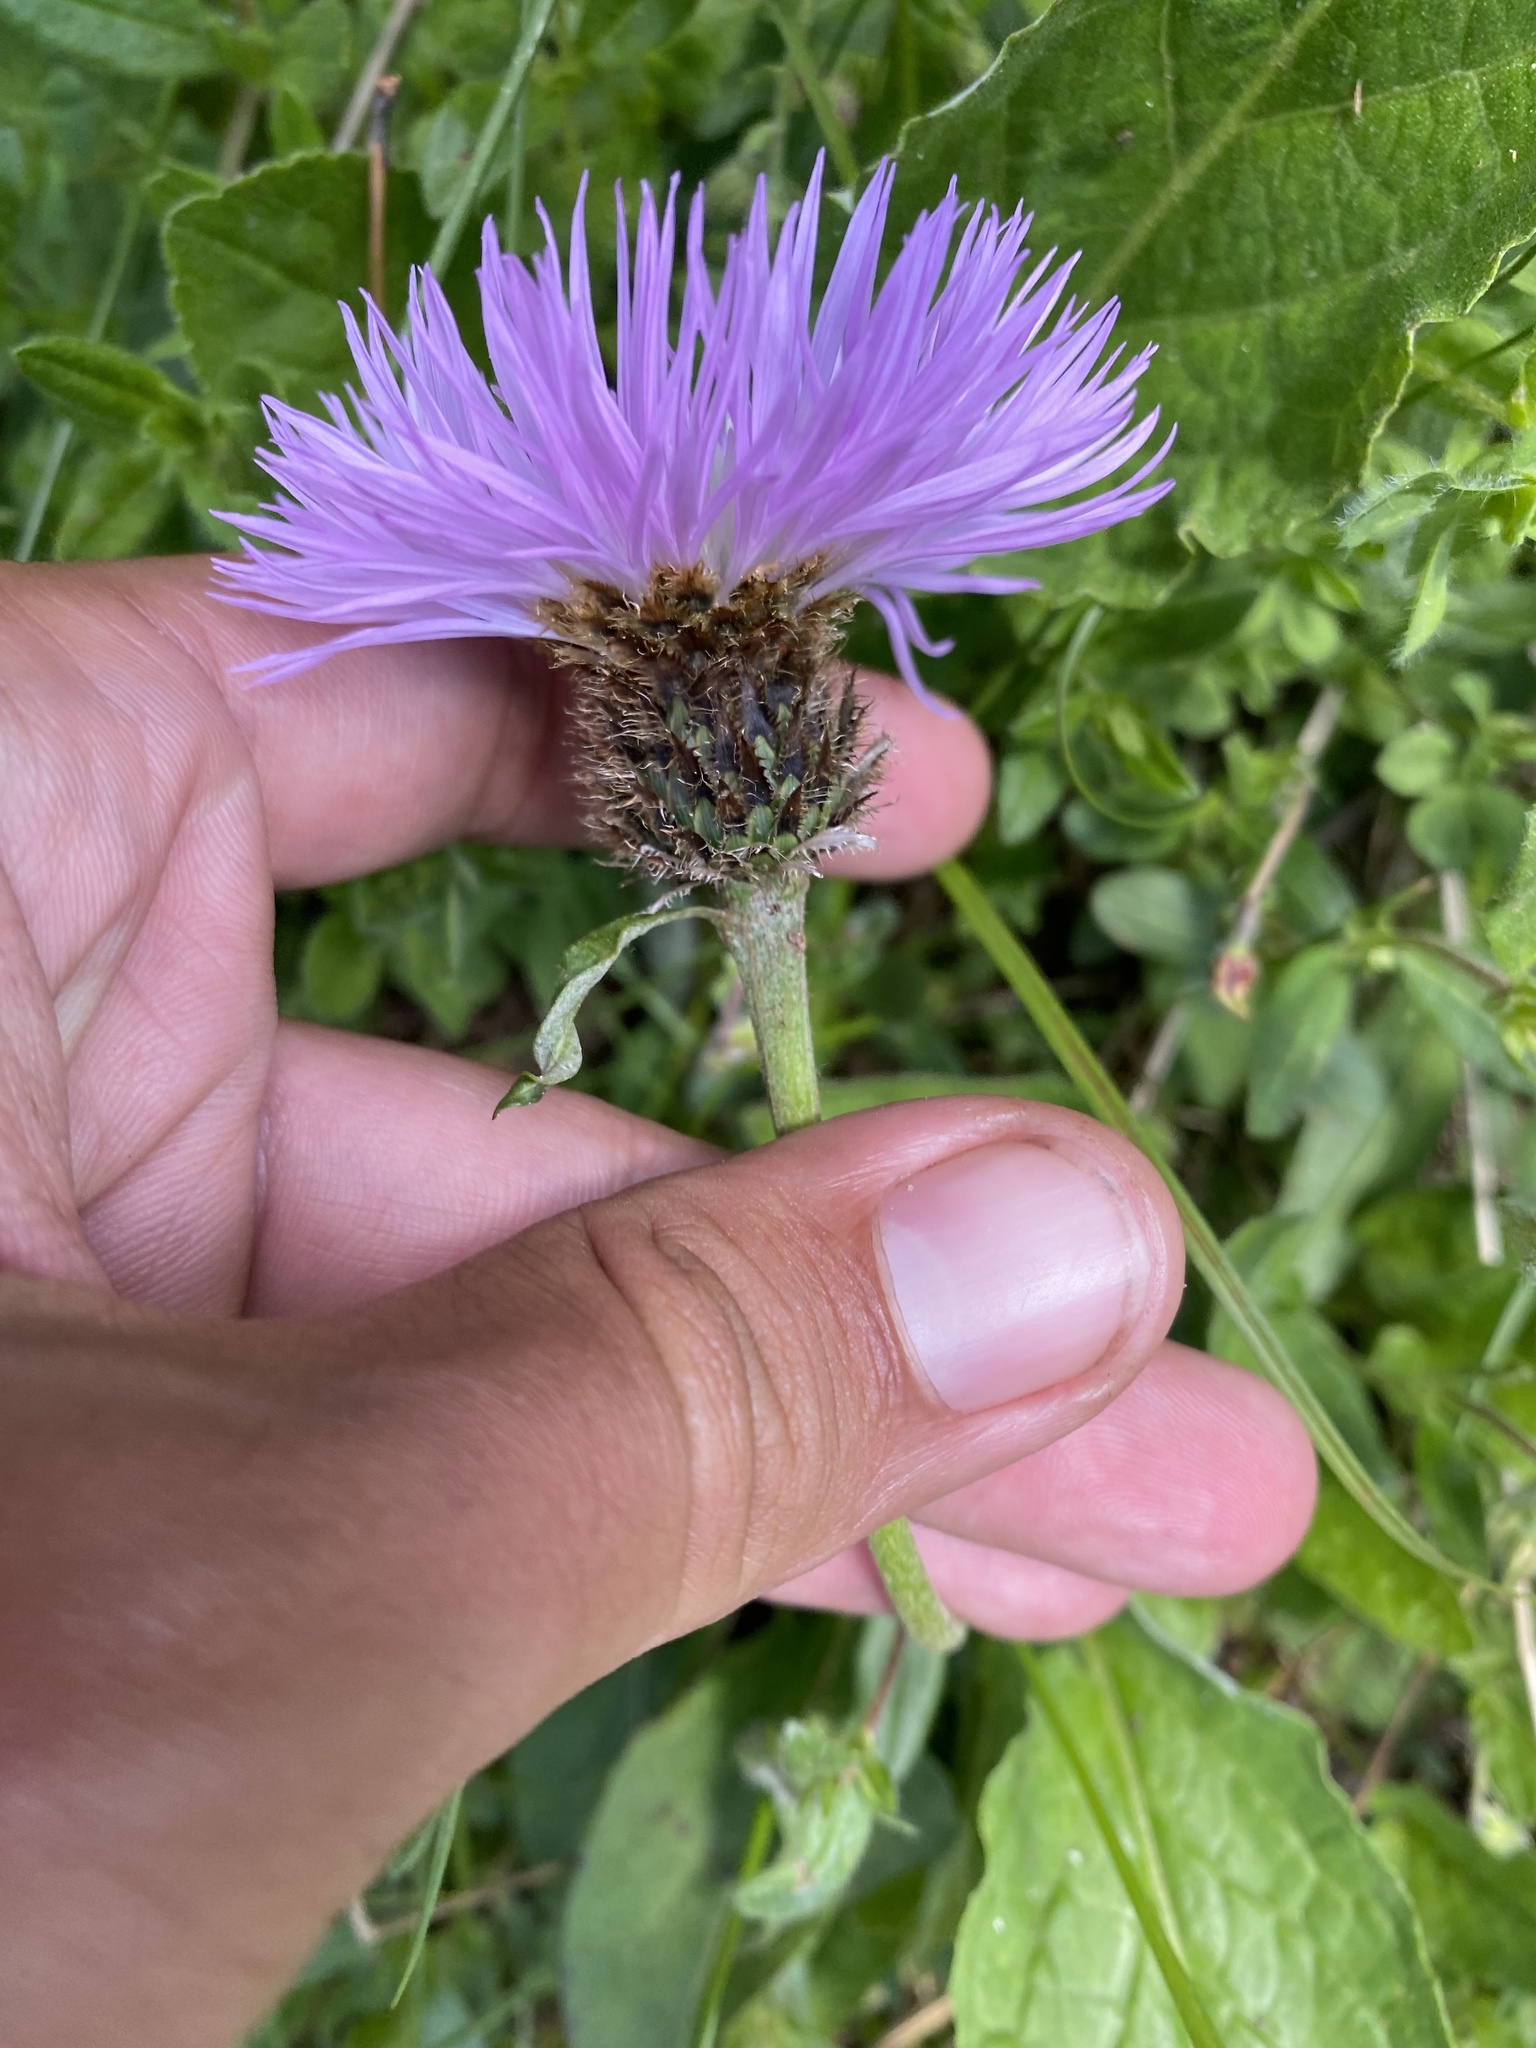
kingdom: Plantae
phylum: Tracheophyta
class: Magnoliopsida
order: Asterales
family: Asteraceae
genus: Psephellus
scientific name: Psephellus dealbatus
